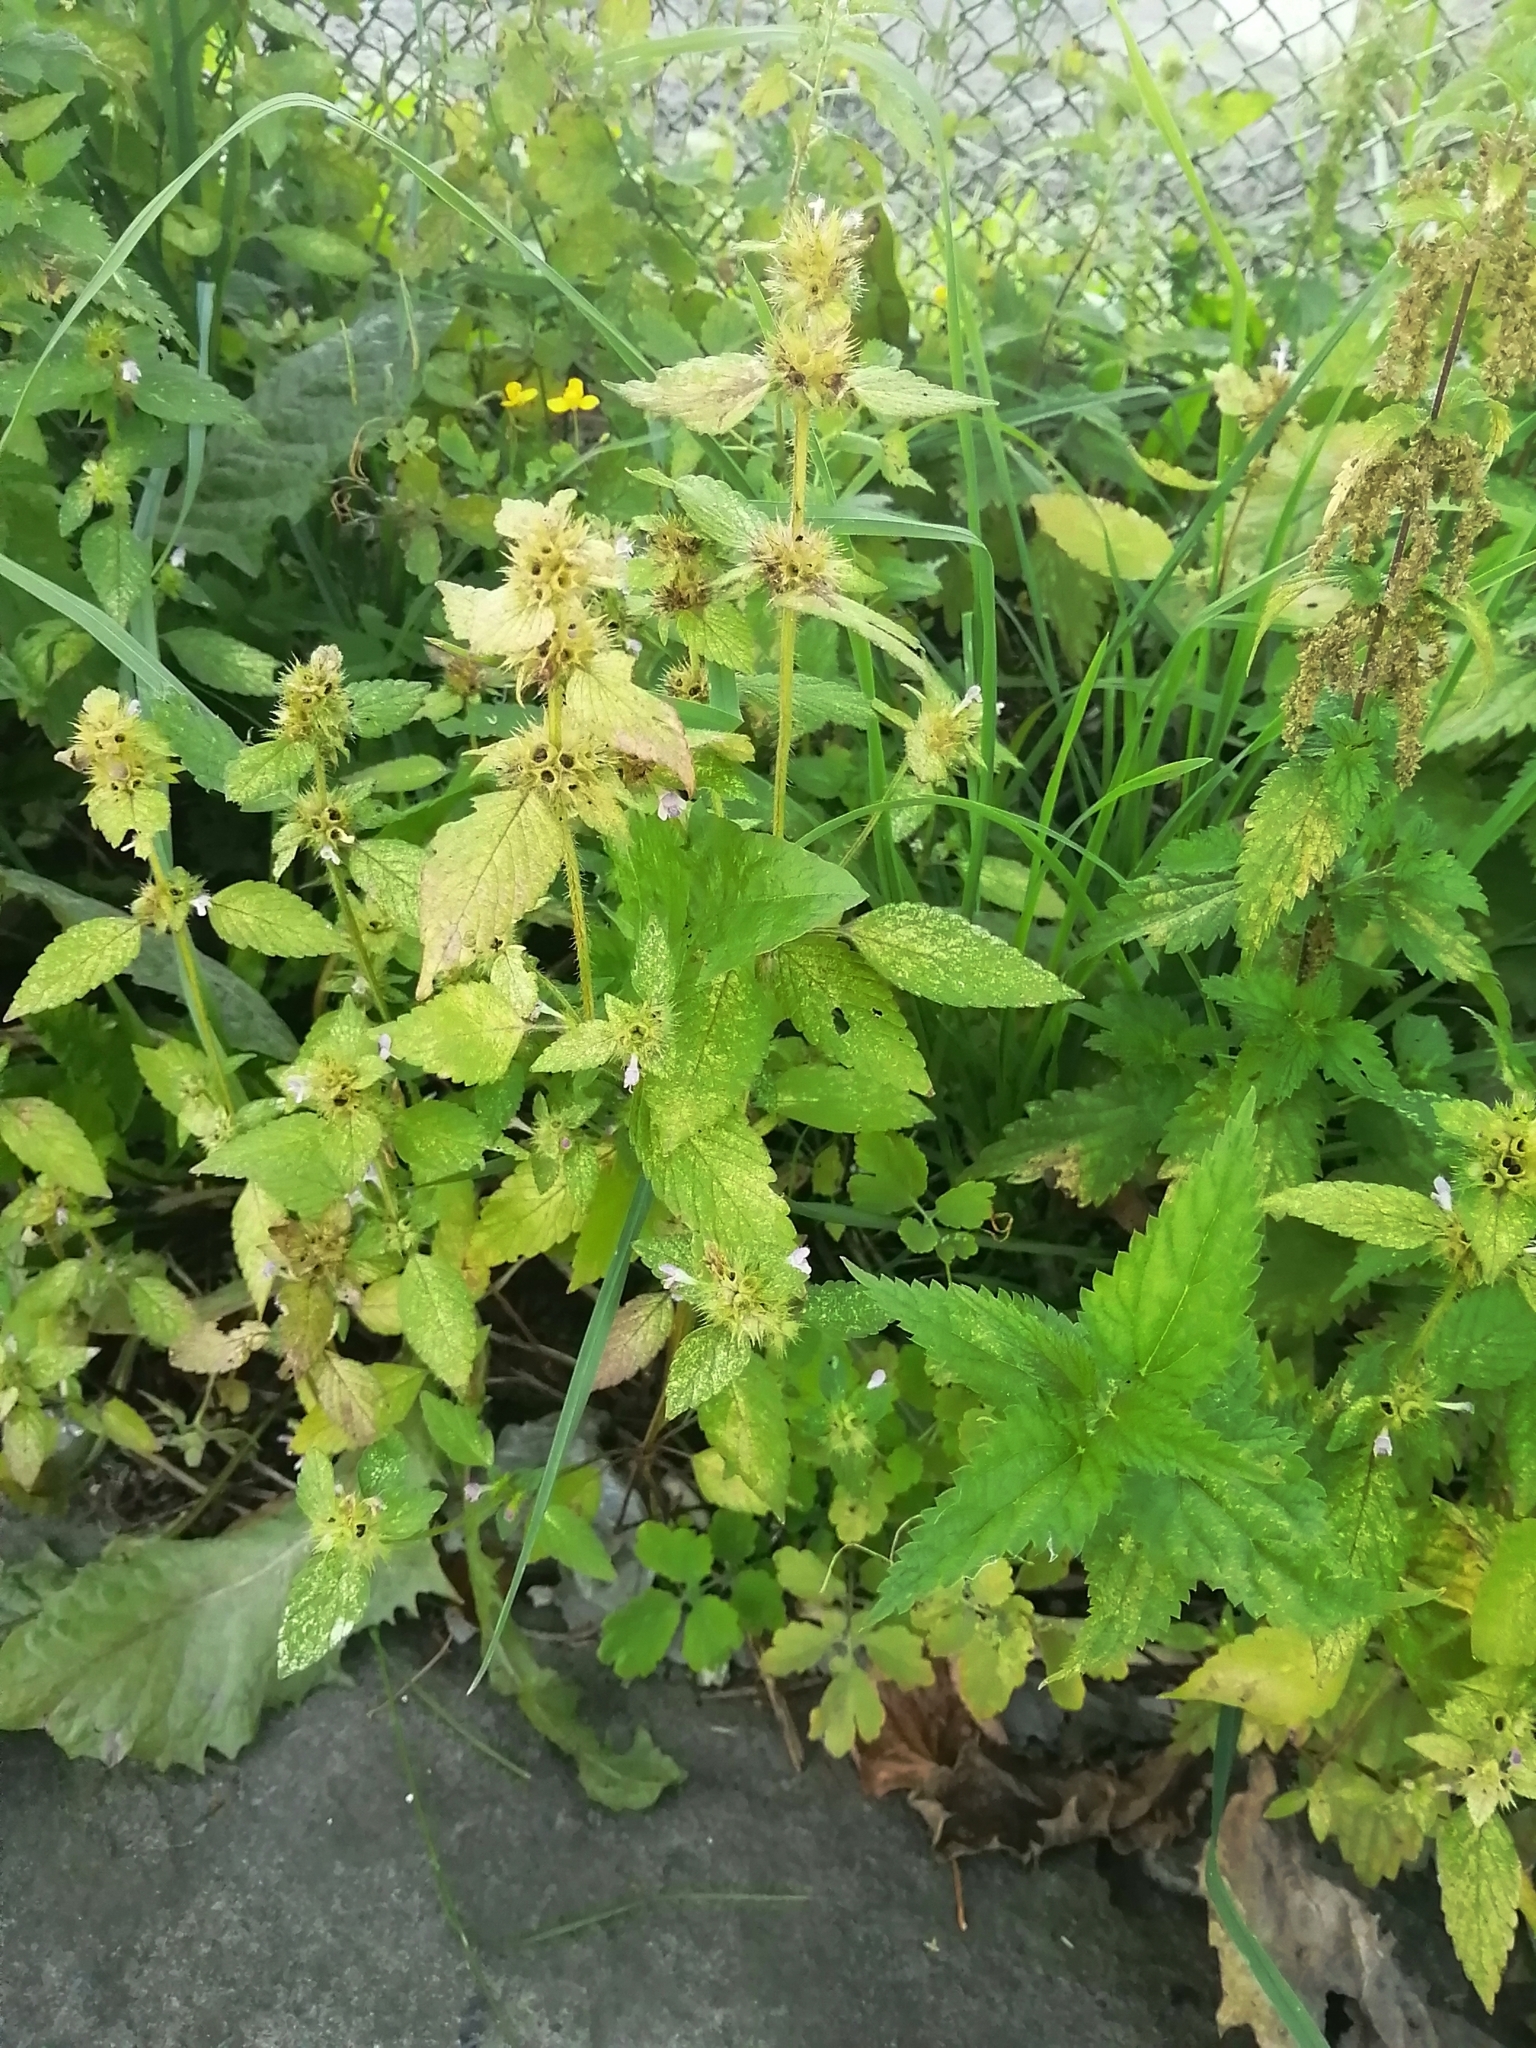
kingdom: Plantae
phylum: Tracheophyta
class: Magnoliopsida
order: Lamiales
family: Lamiaceae
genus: Galeopsis
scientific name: Galeopsis bifida
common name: Bifid hemp-nettle
